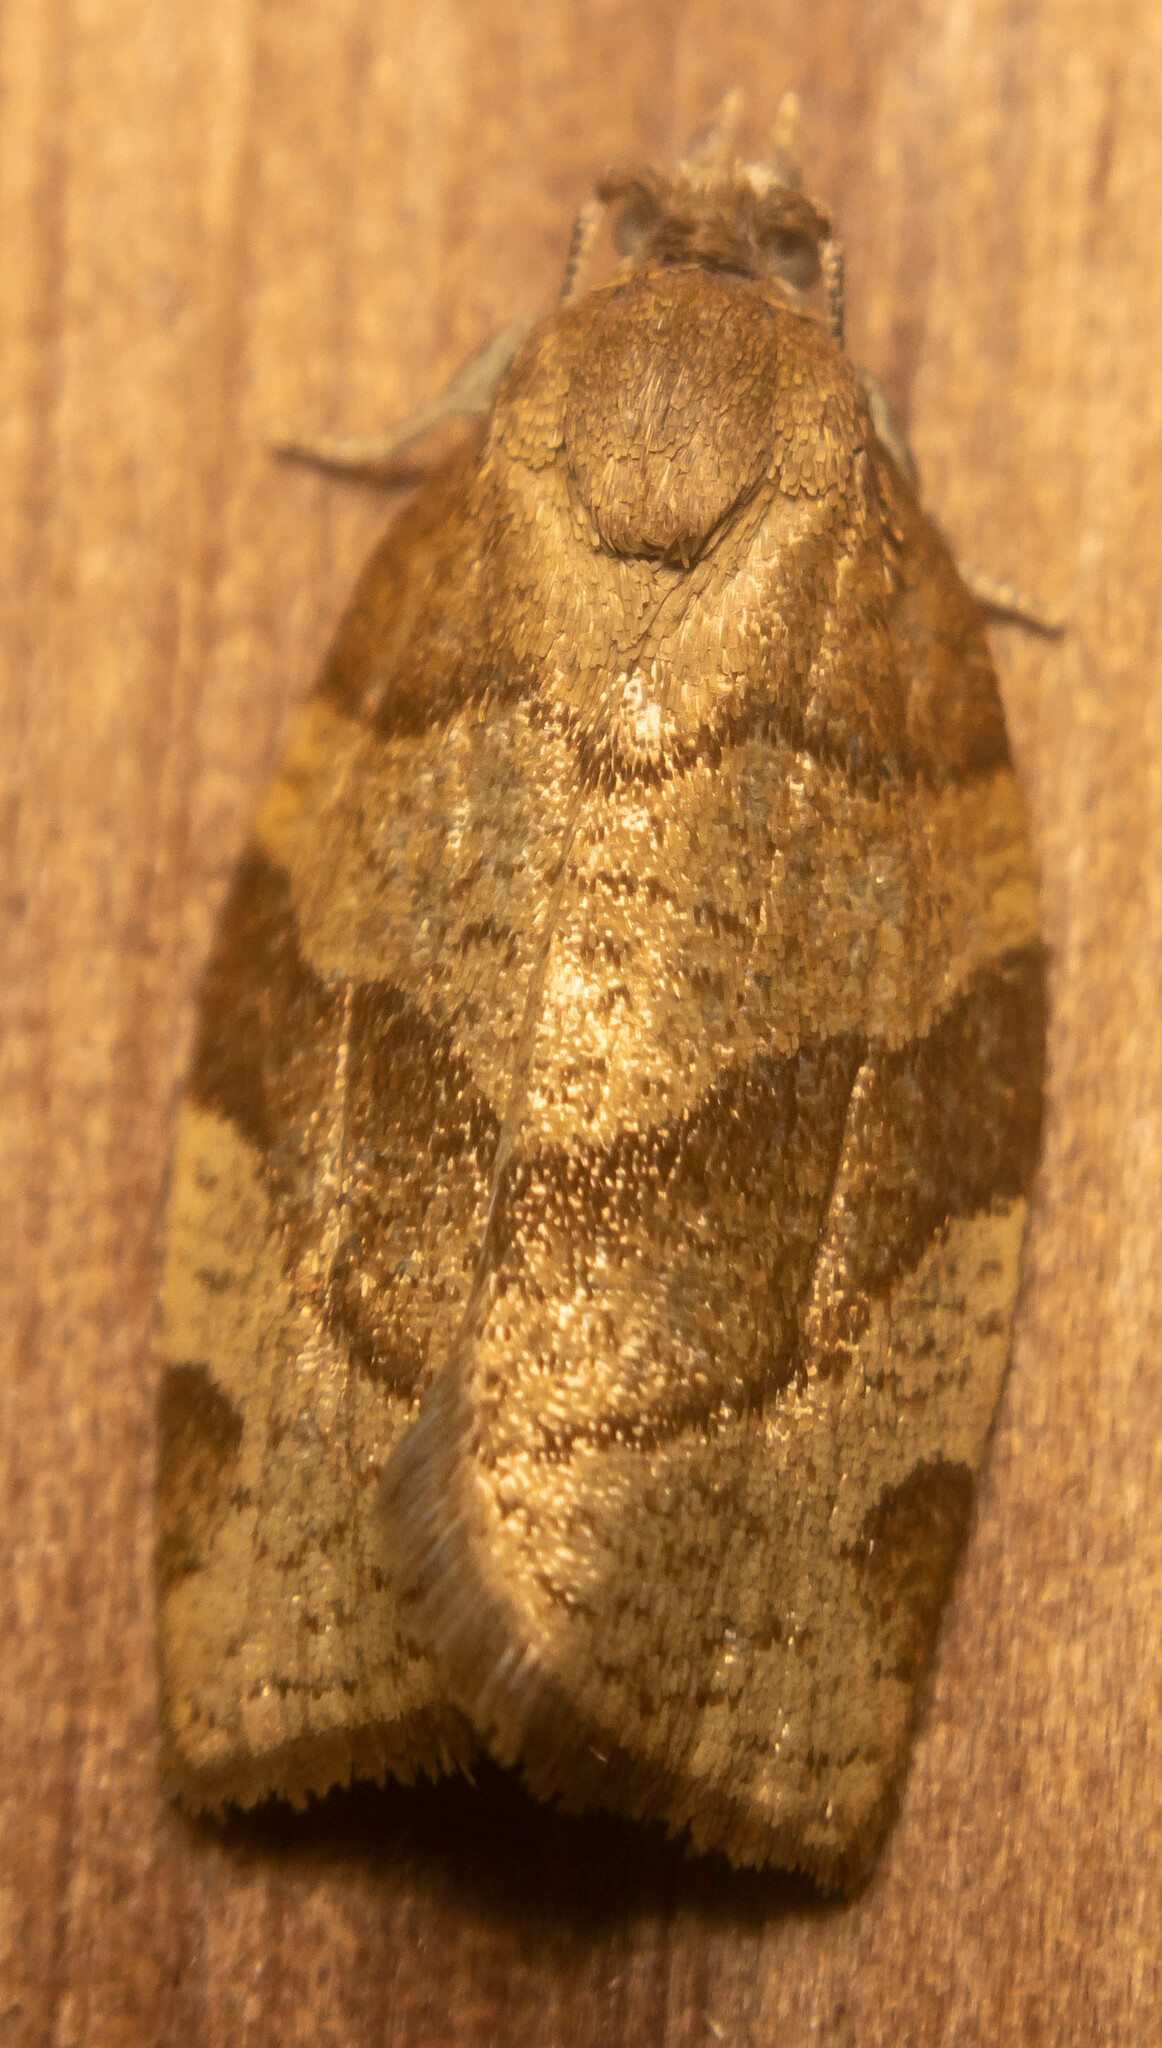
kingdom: Animalia
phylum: Arthropoda
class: Insecta
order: Lepidoptera
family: Tortricidae
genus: Pandemis
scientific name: Pandemis cerasana
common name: Barred fruit-tree tortrix
